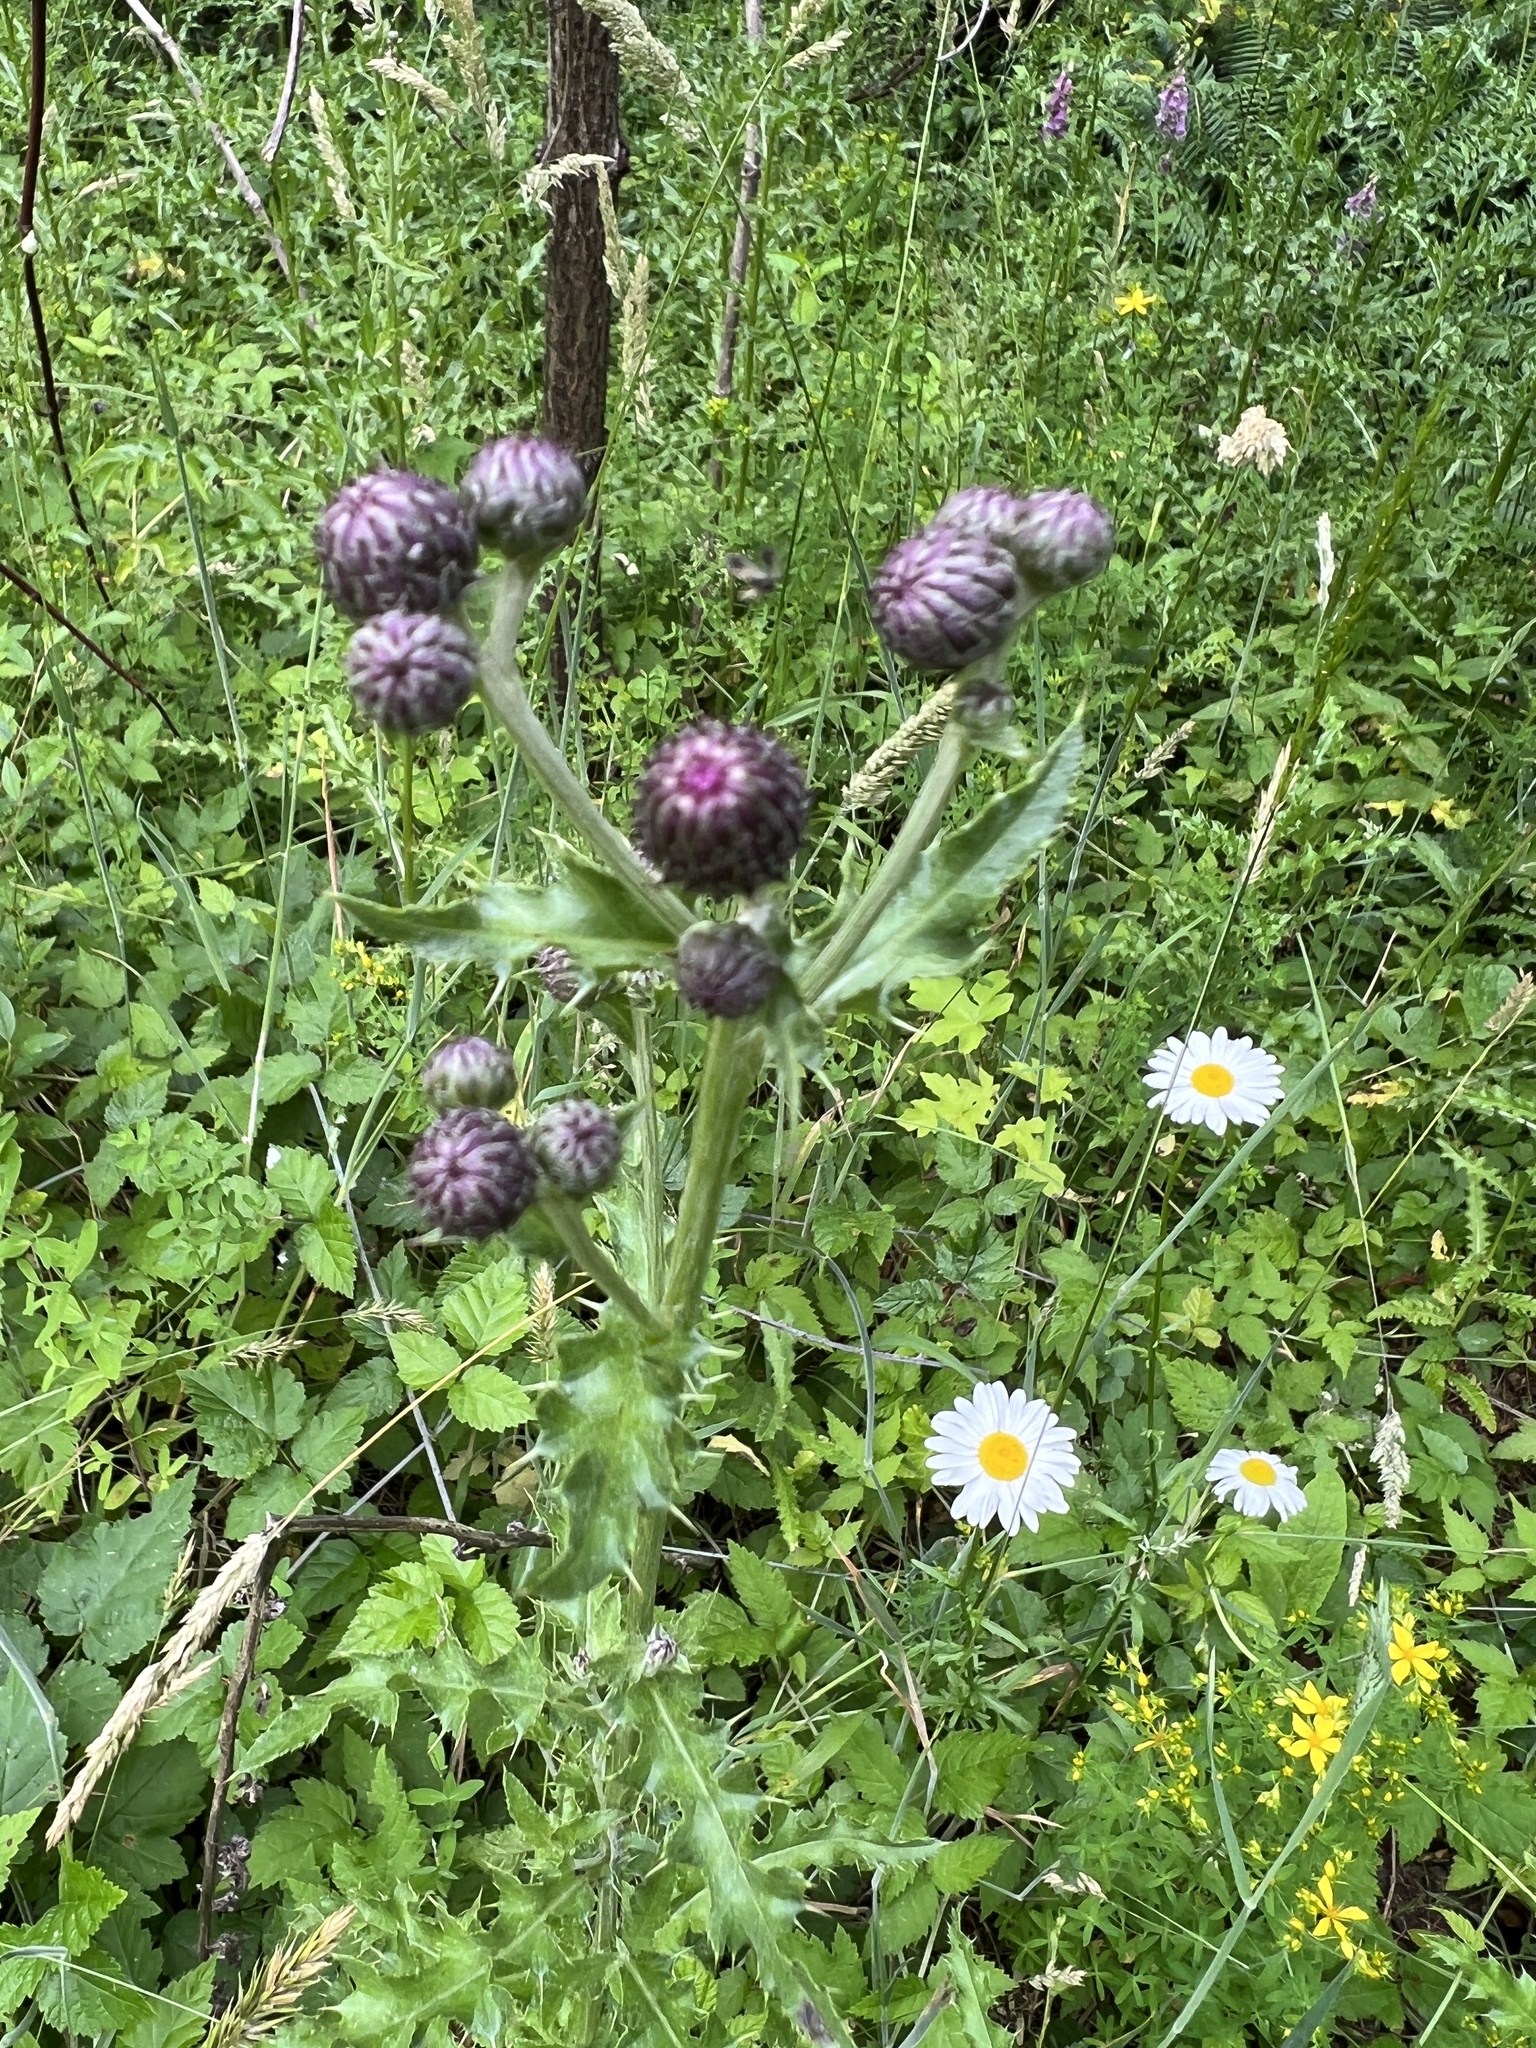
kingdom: Plantae
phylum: Tracheophyta
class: Magnoliopsida
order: Asterales
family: Asteraceae
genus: Cirsium
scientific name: Cirsium arvense
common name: Creeping thistle
